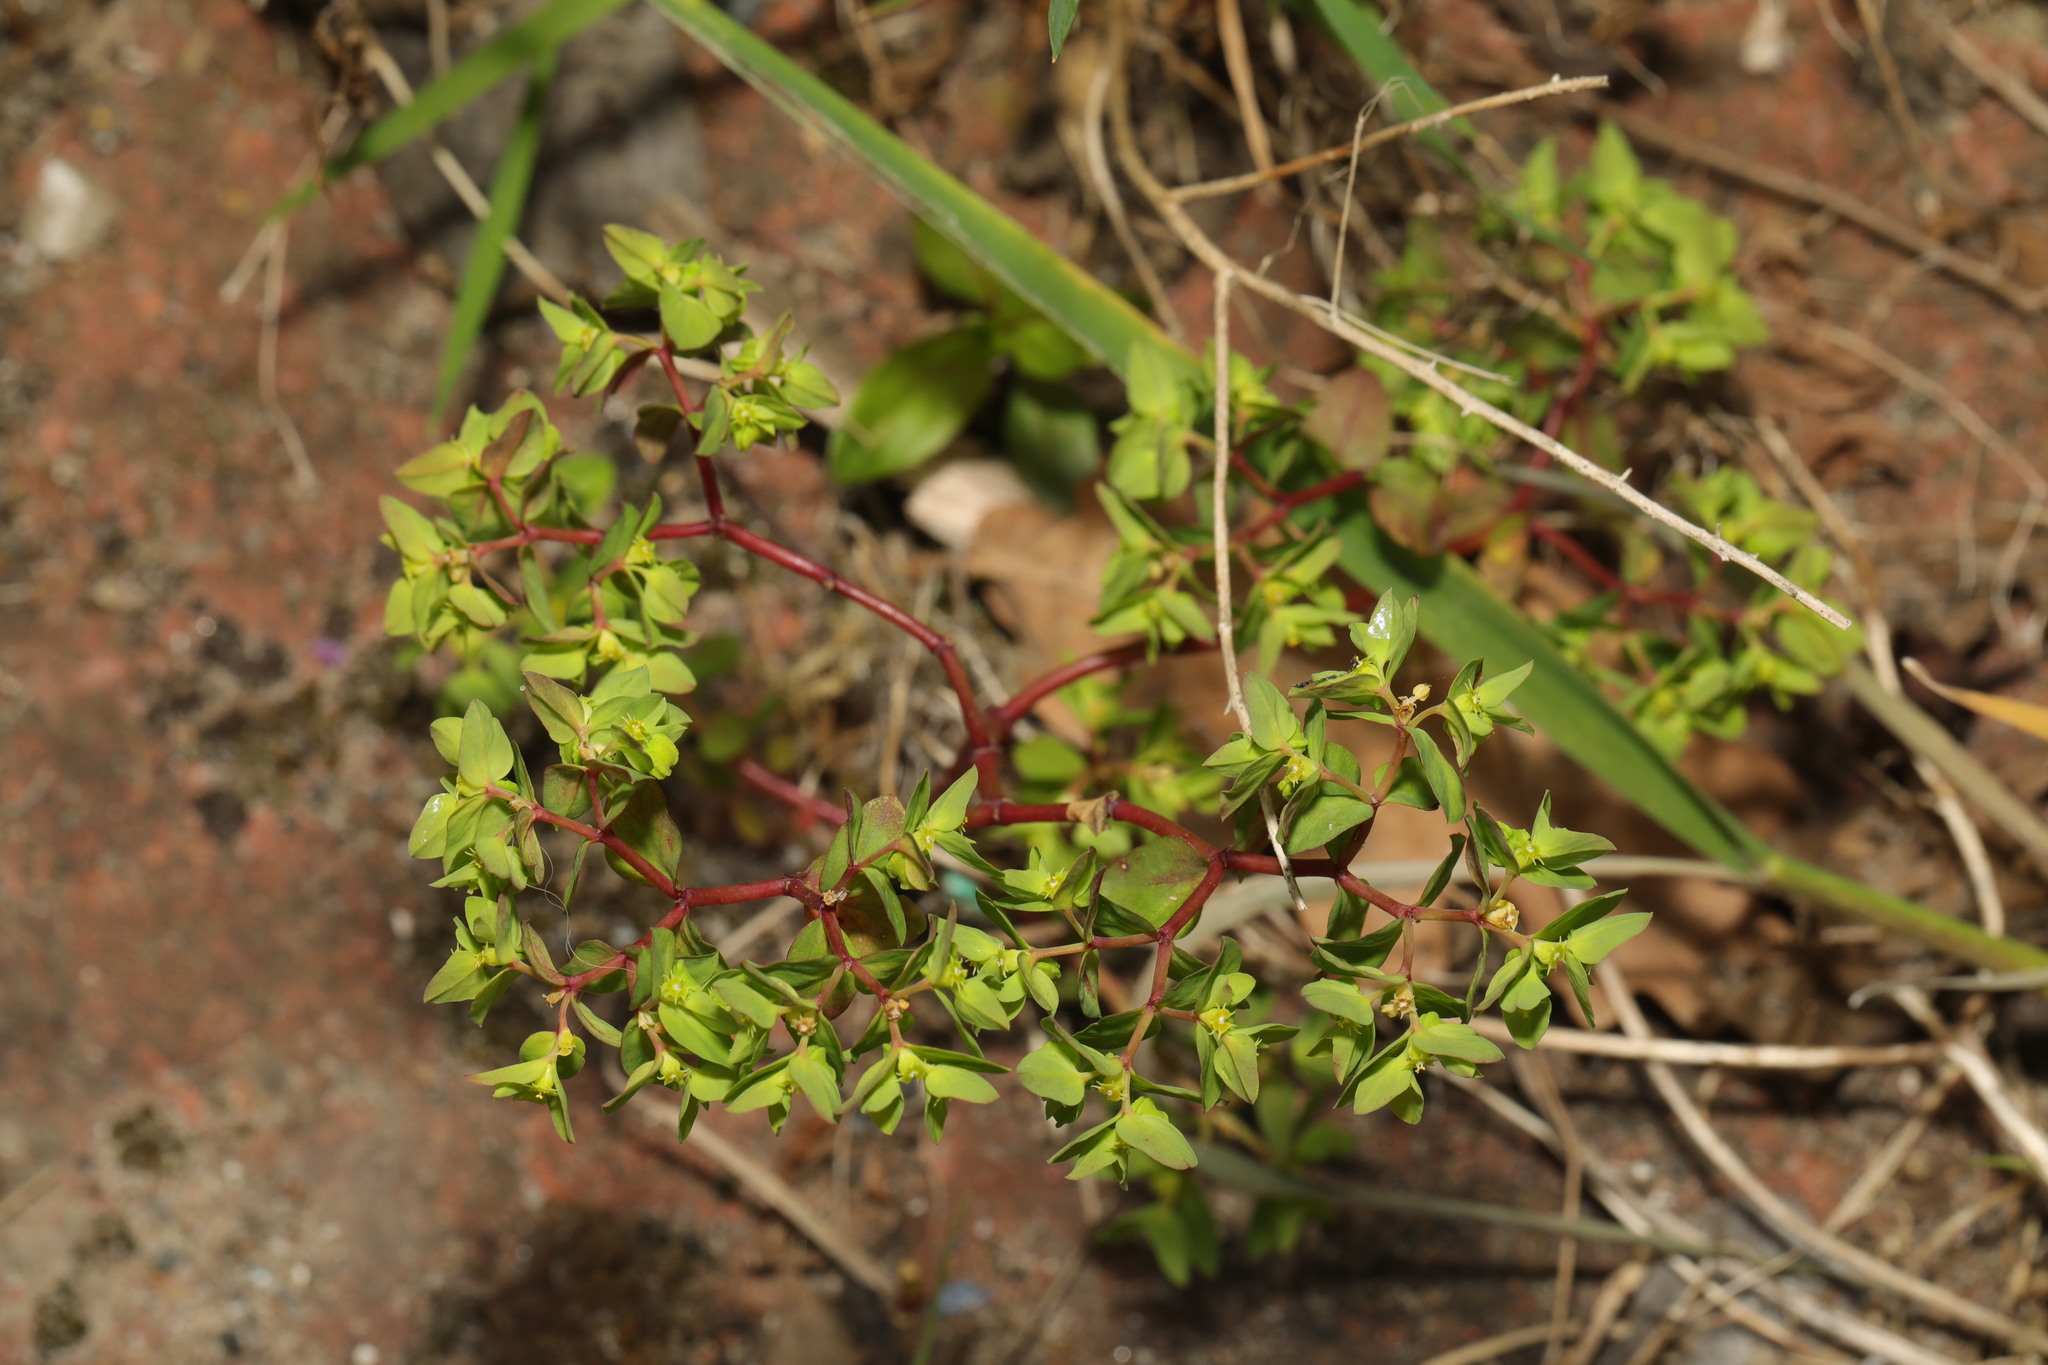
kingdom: Plantae
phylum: Tracheophyta
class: Magnoliopsida
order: Malpighiales
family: Euphorbiaceae
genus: Euphorbia
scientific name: Euphorbia peplus
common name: Petty spurge
